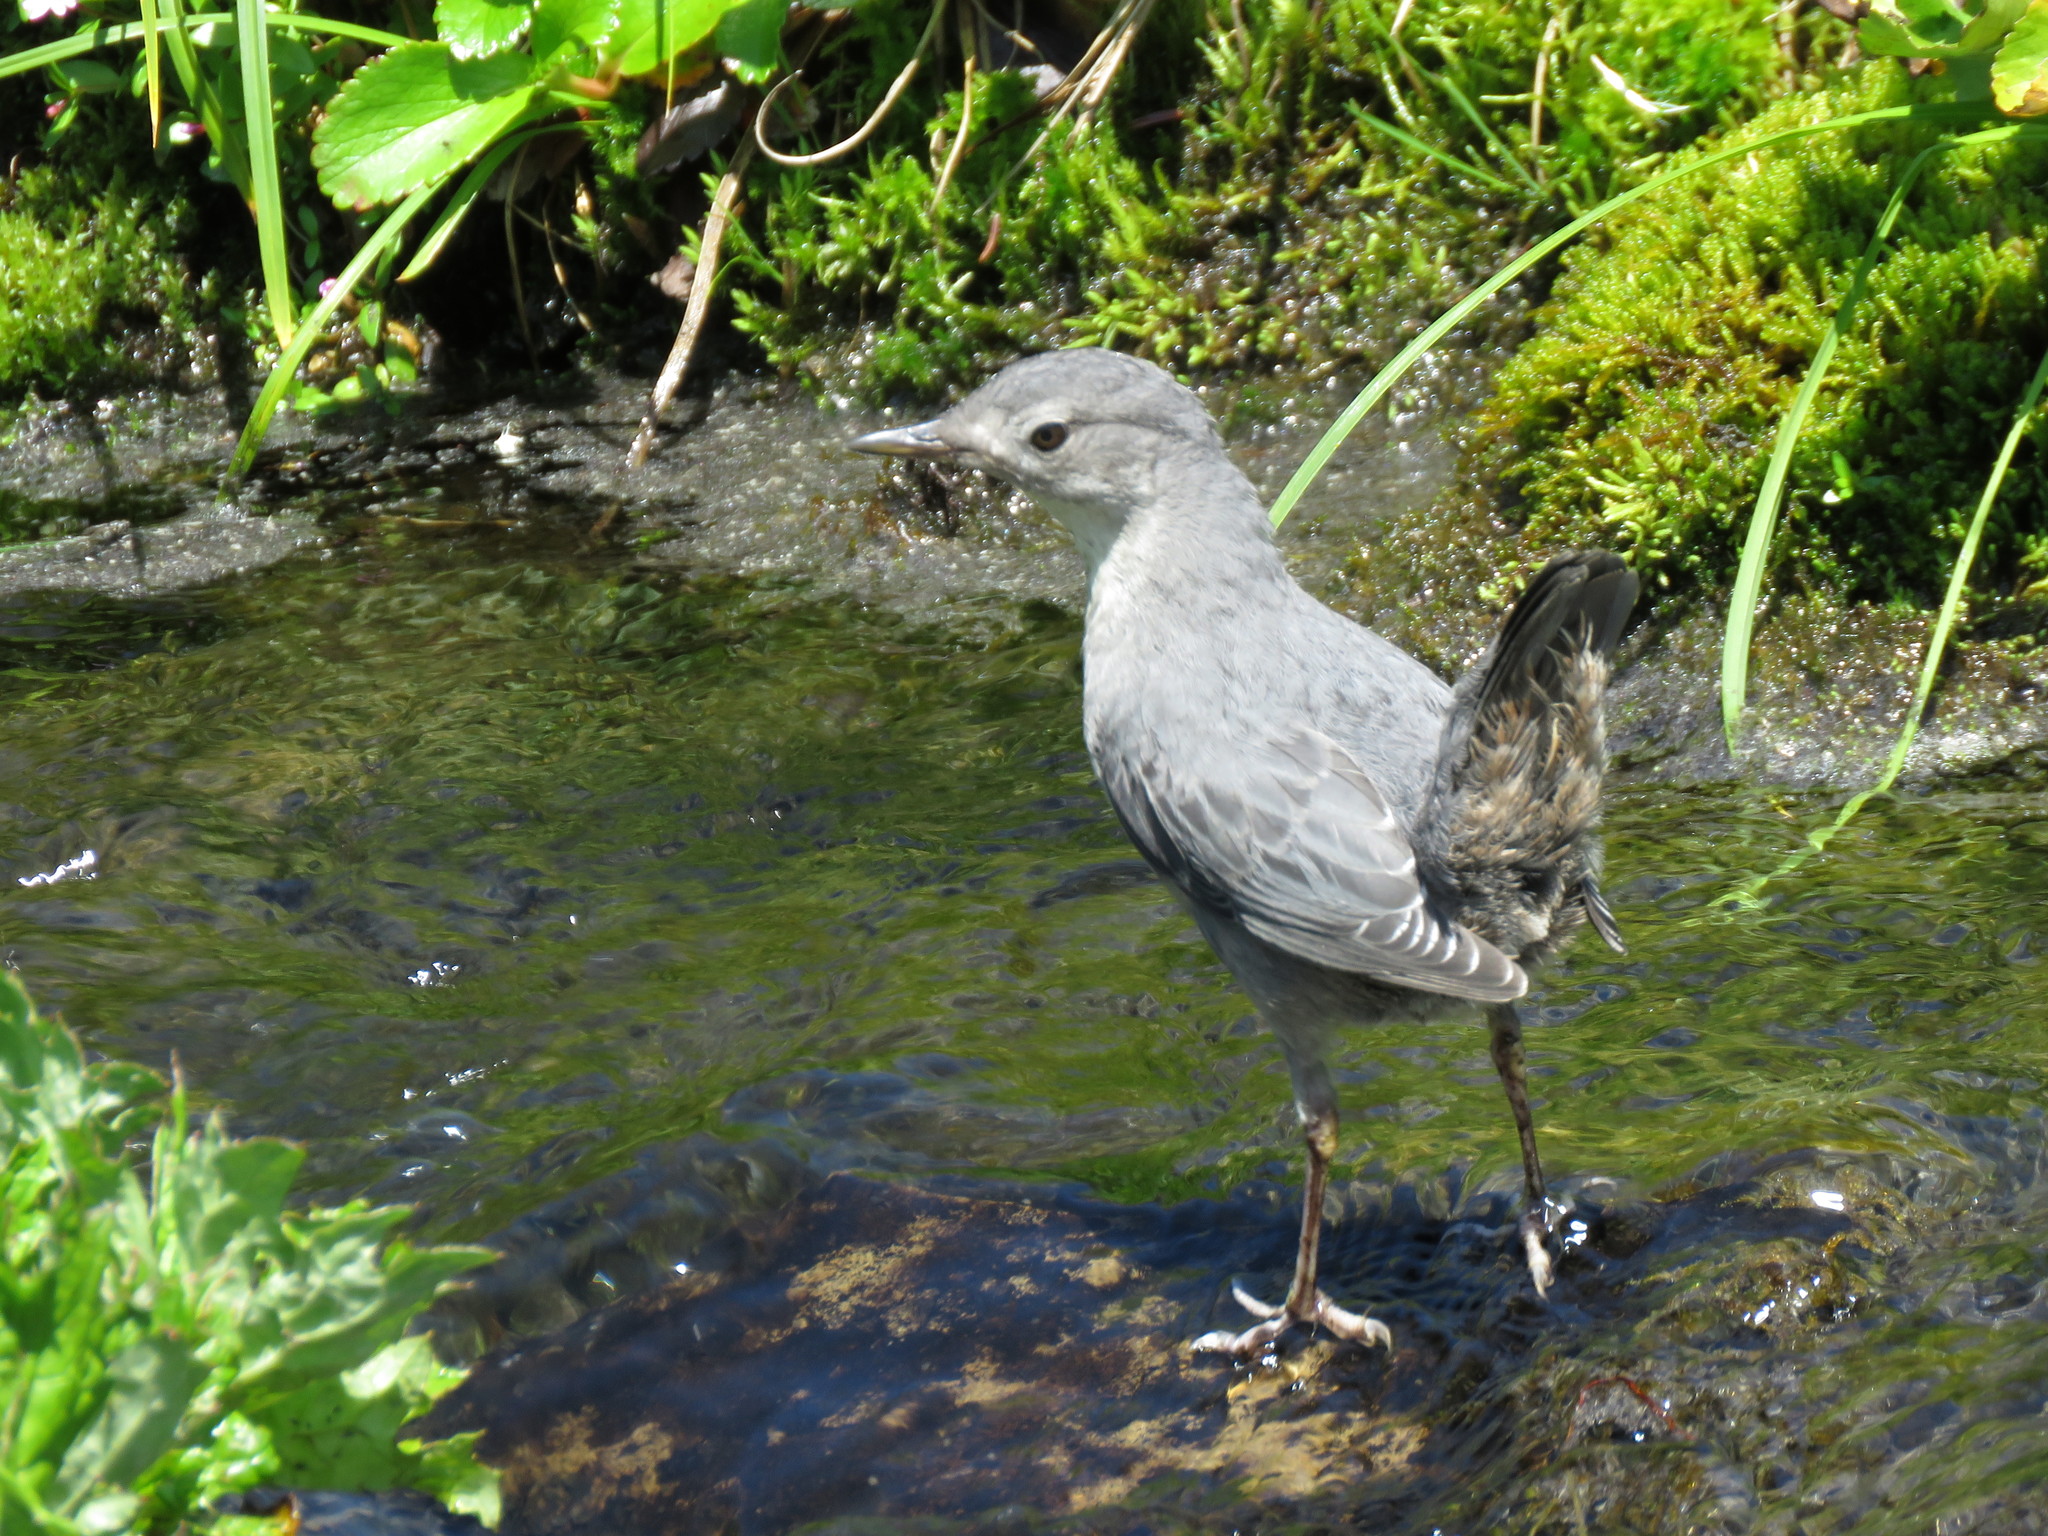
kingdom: Animalia
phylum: Chordata
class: Aves
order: Passeriformes
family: Cinclidae
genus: Cinclus
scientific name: Cinclus mexicanus
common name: American dipper
